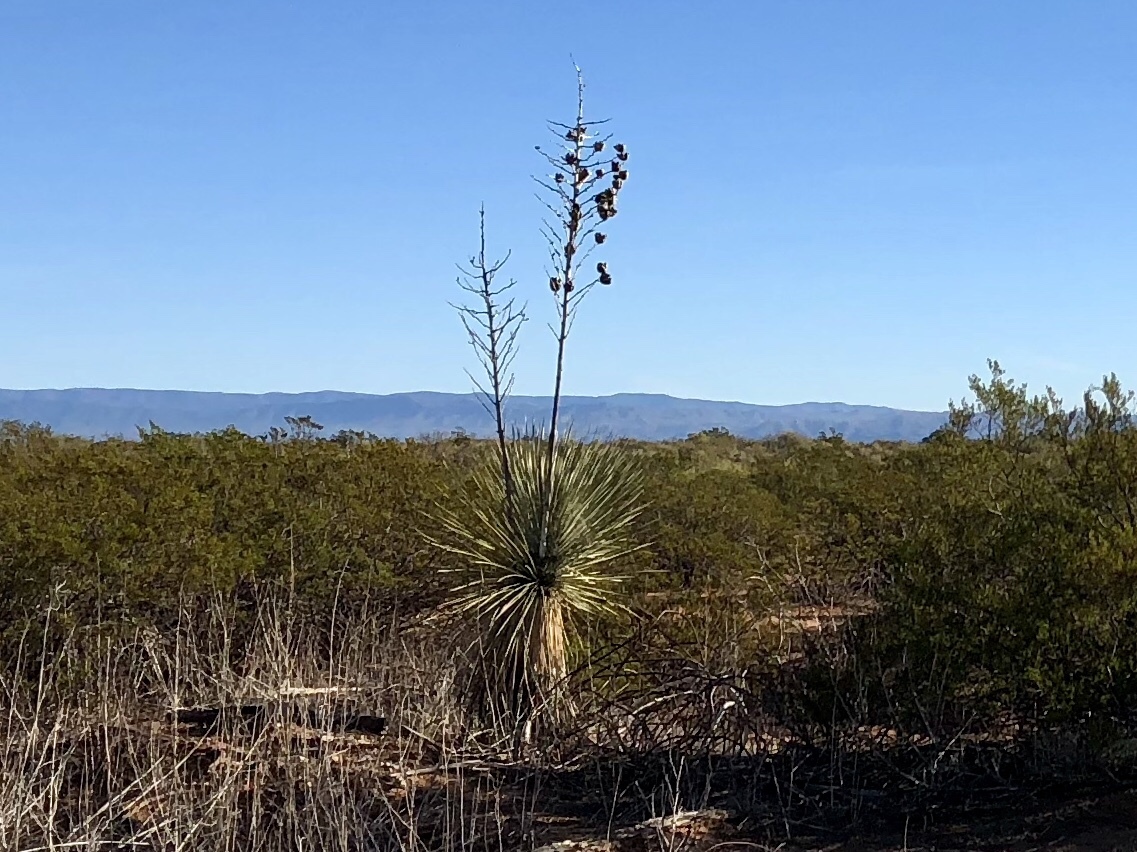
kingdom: Plantae
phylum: Tracheophyta
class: Liliopsida
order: Asparagales
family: Asparagaceae
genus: Yucca
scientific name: Yucca elata
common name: Palmella
